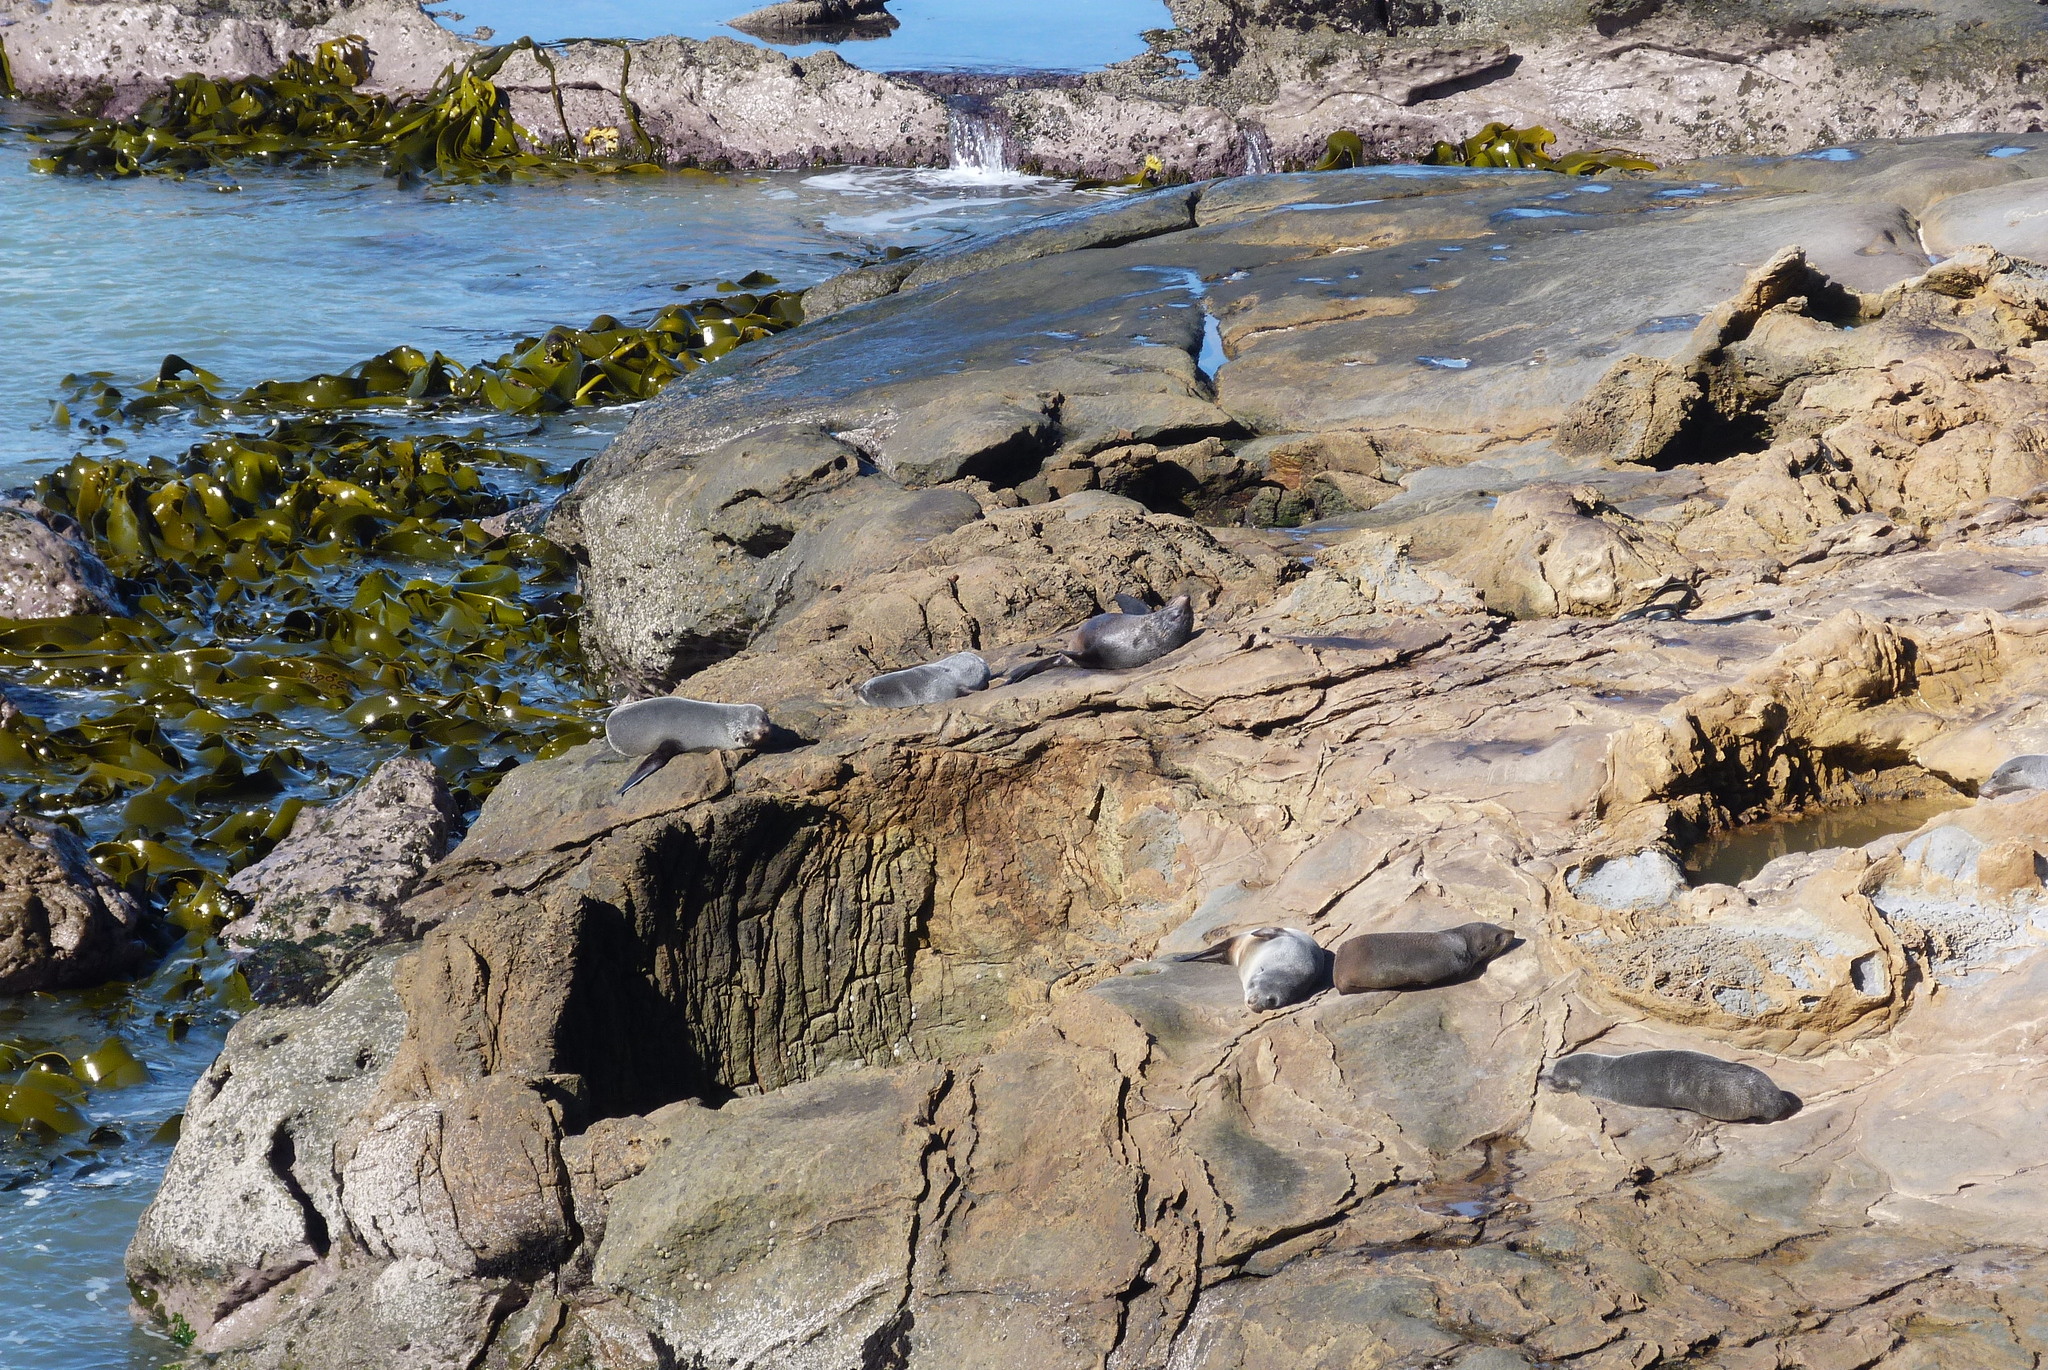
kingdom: Animalia
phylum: Chordata
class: Mammalia
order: Carnivora
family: Otariidae
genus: Arctocephalus
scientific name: Arctocephalus forsteri
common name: New zealand fur seal
